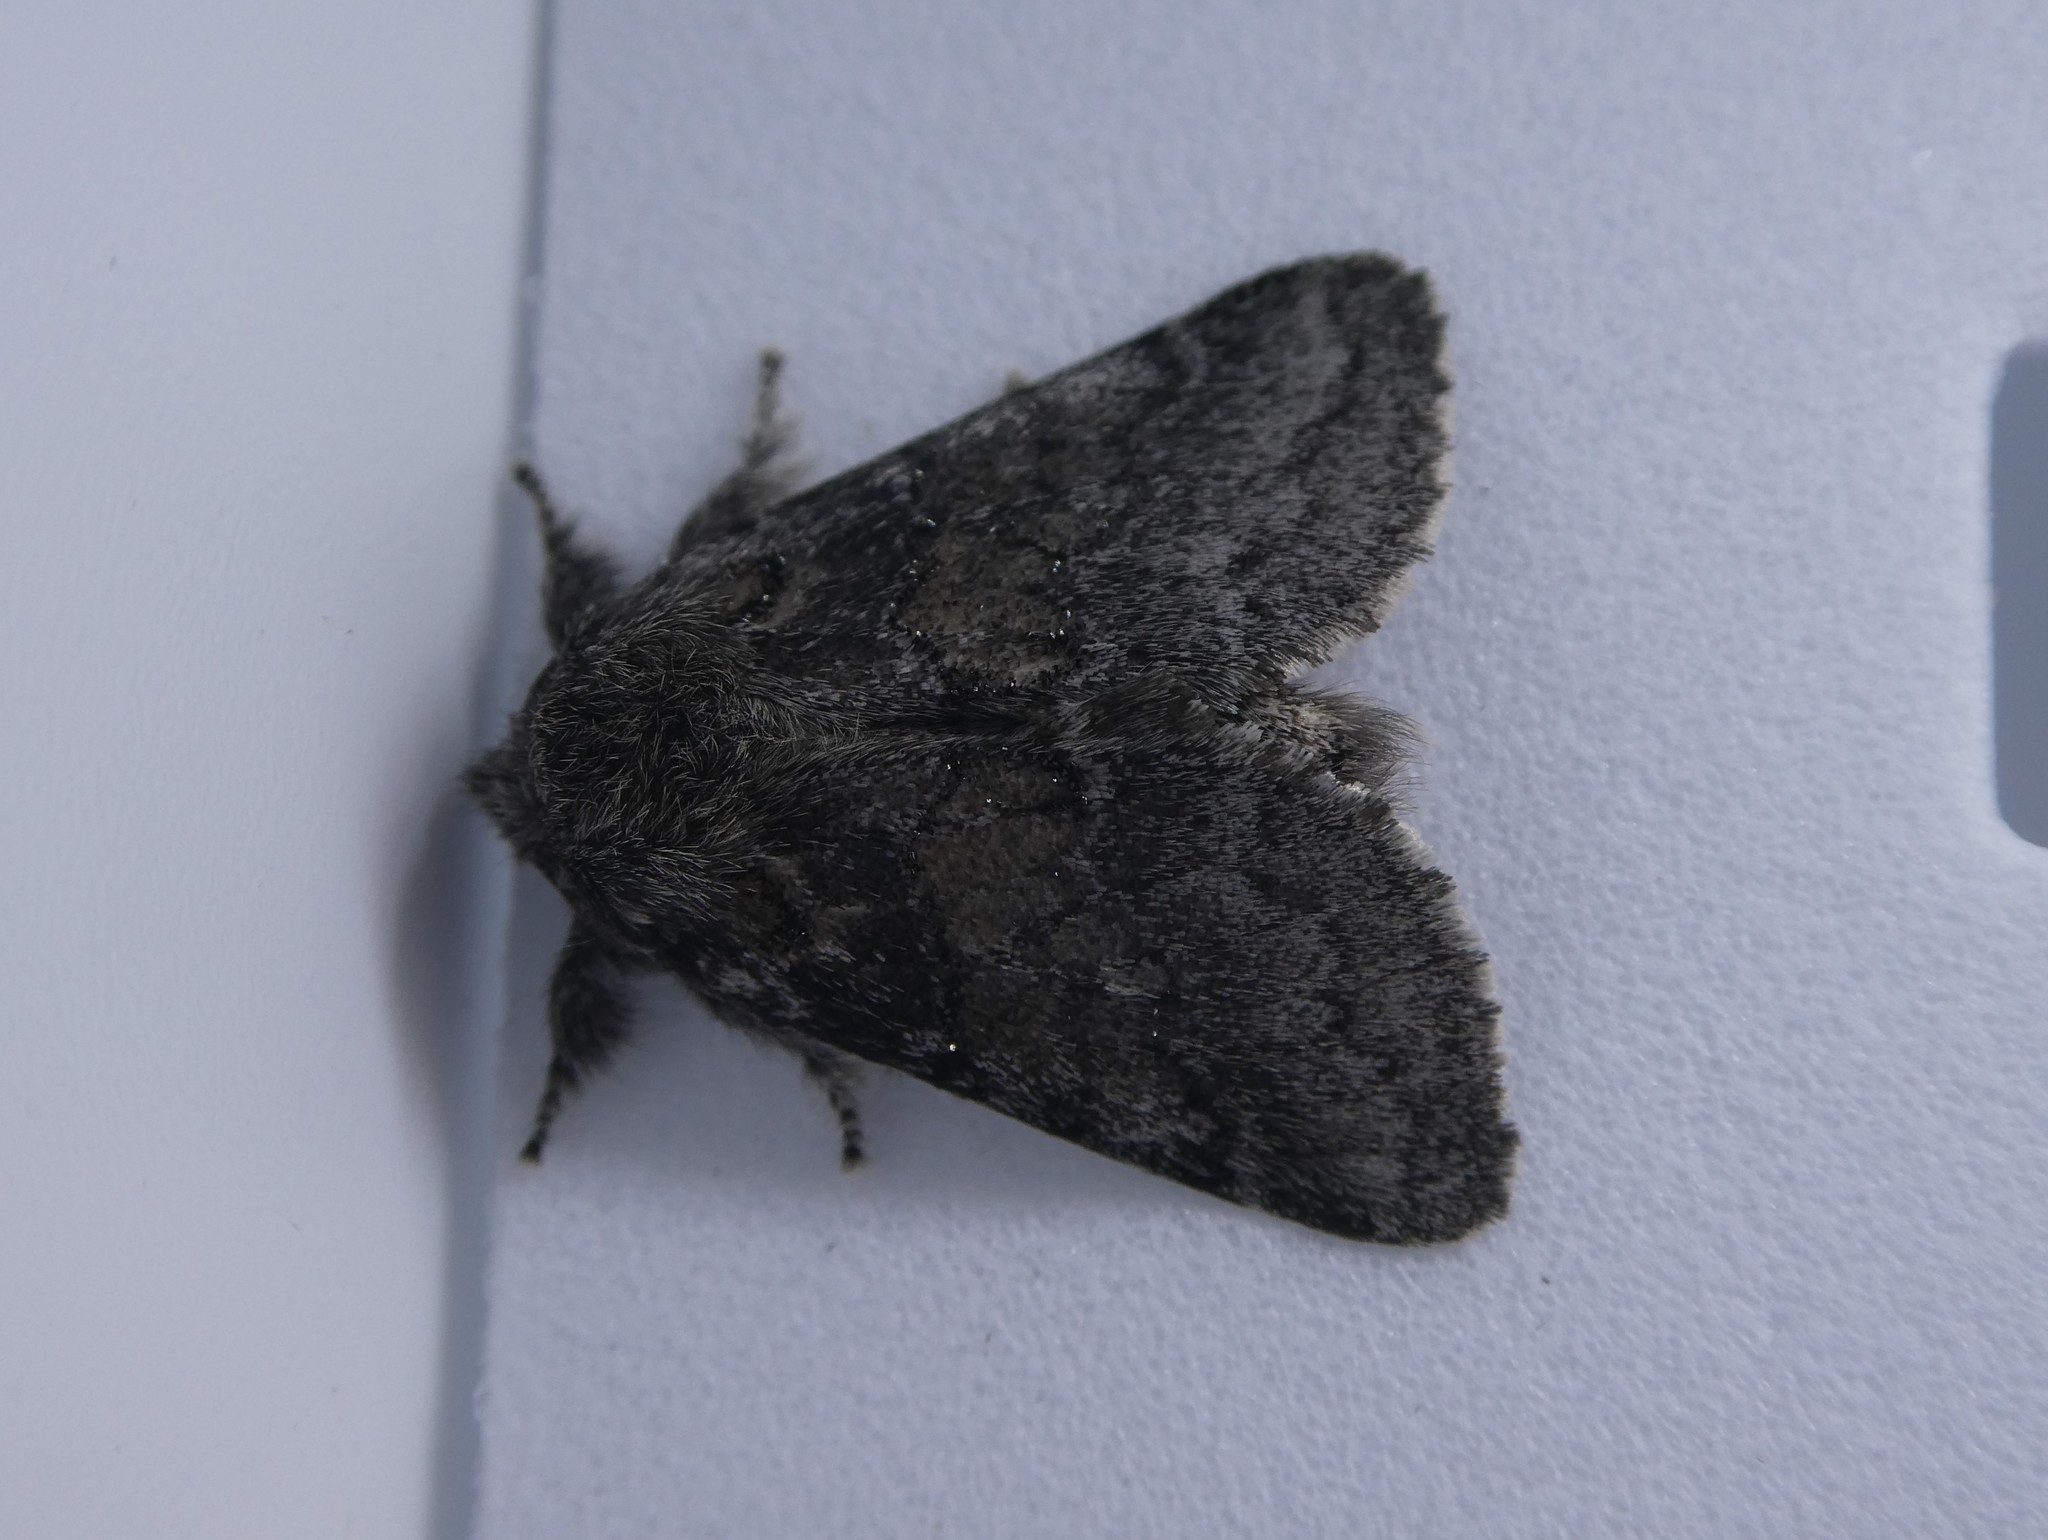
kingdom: Animalia
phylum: Arthropoda
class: Insecta
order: Lepidoptera
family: Notodontidae
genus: Gluphisia
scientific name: Gluphisia septentrionis
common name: Common gluphisia
